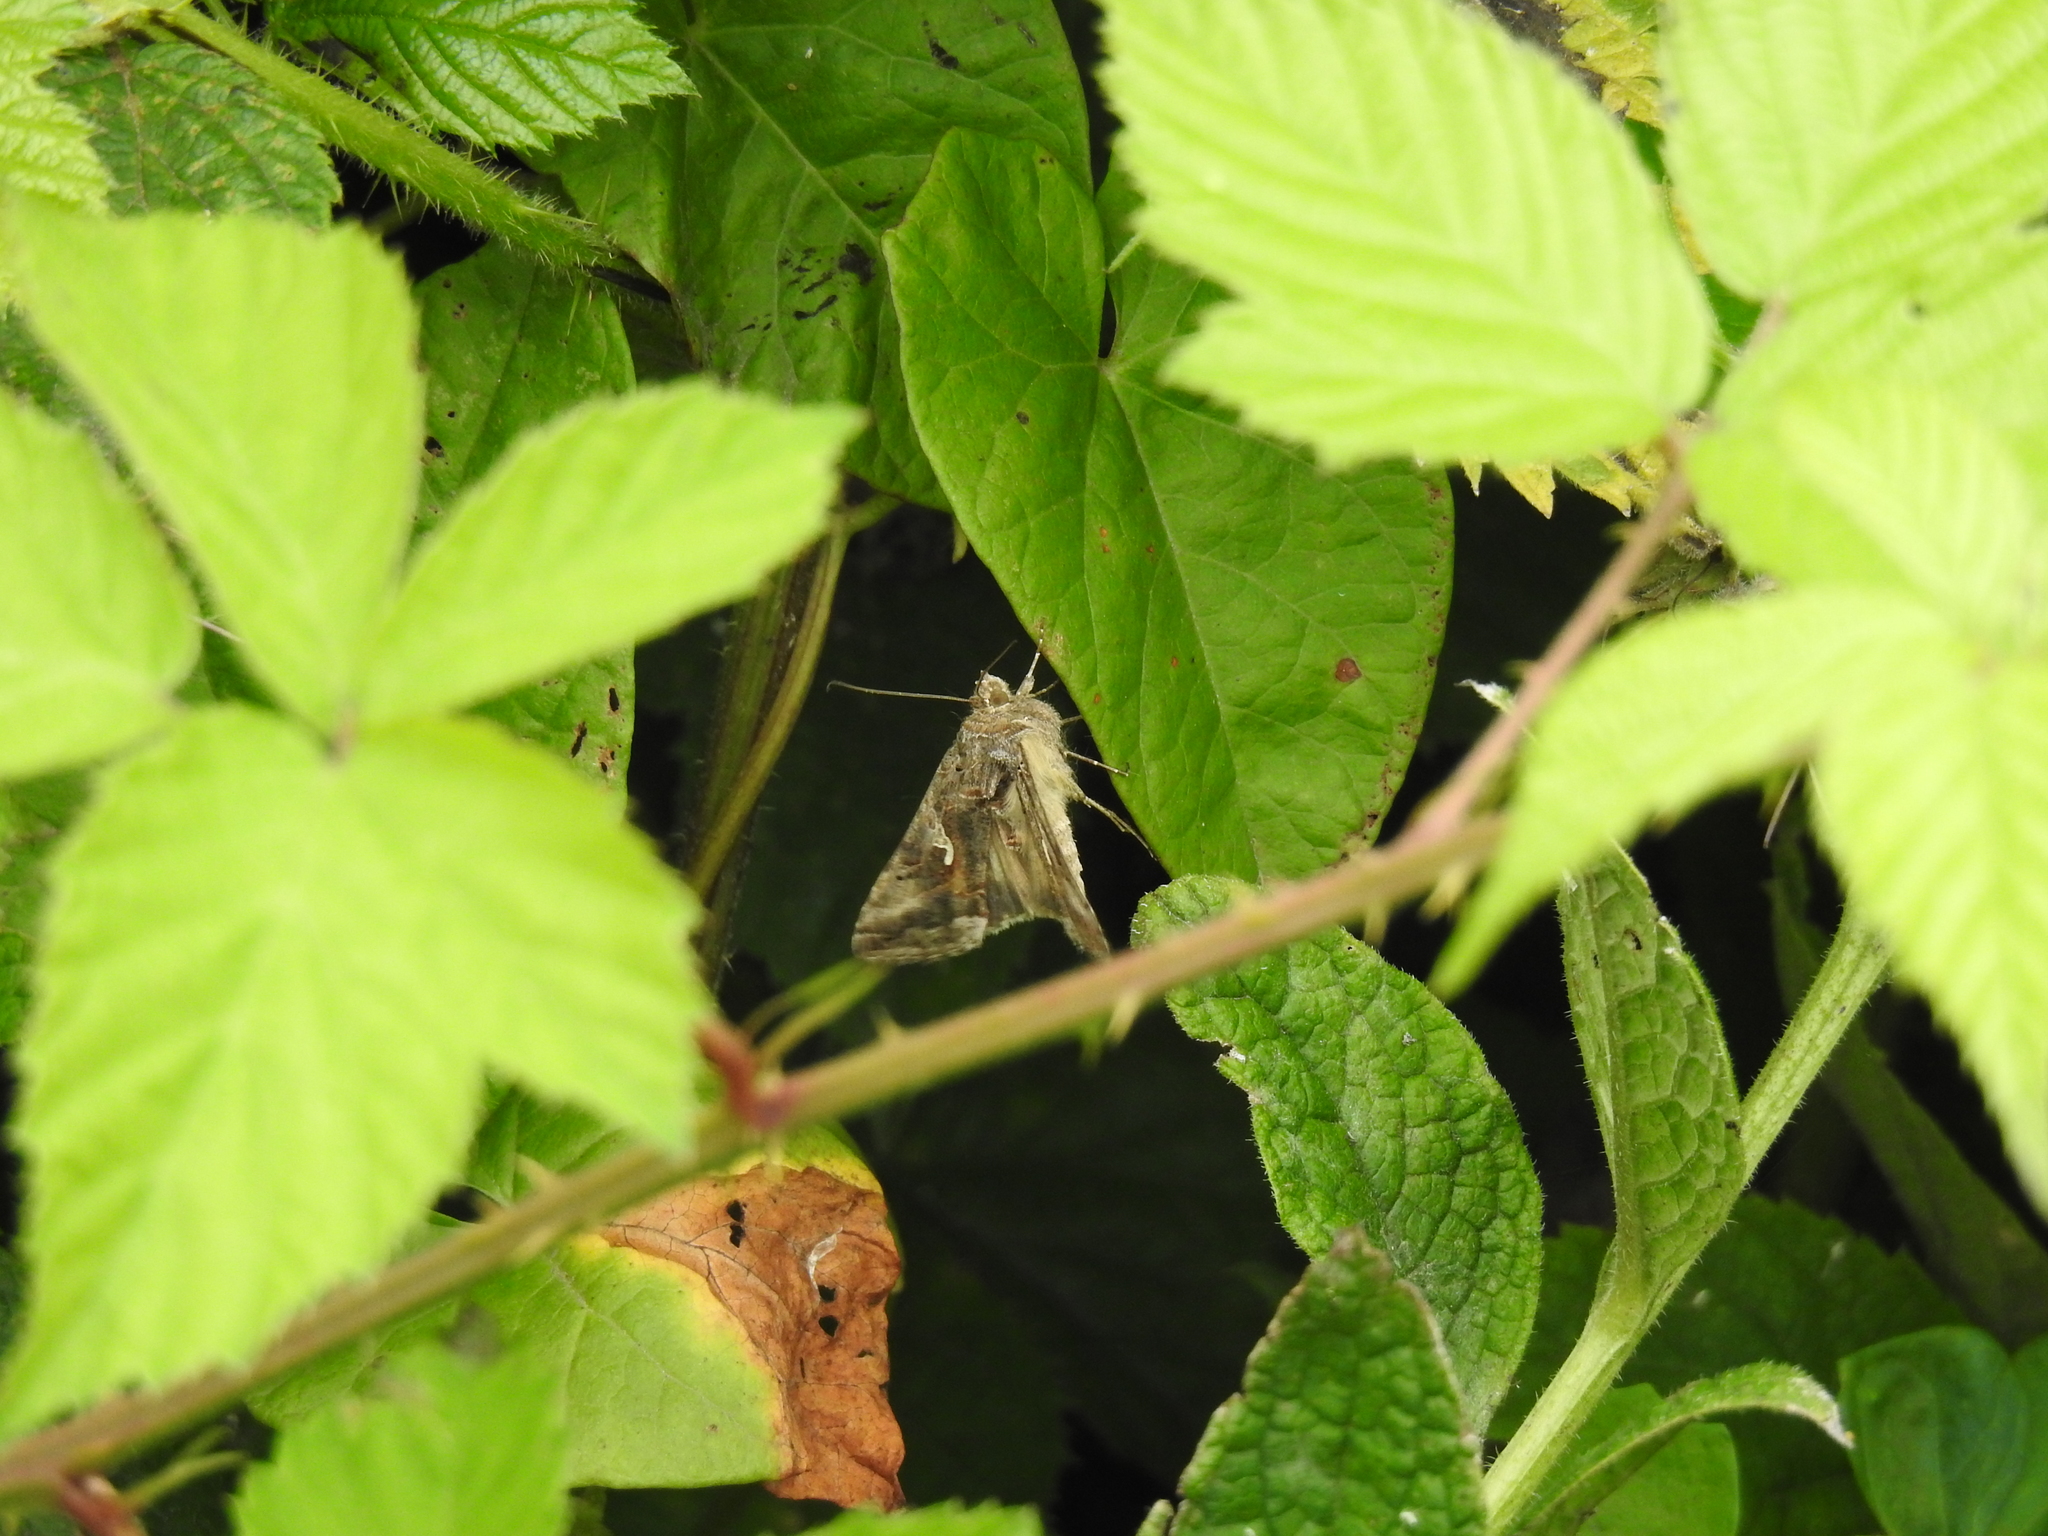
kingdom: Animalia
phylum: Arthropoda
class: Insecta
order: Lepidoptera
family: Noctuidae
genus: Autographa
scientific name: Autographa gamma
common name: Silver y
